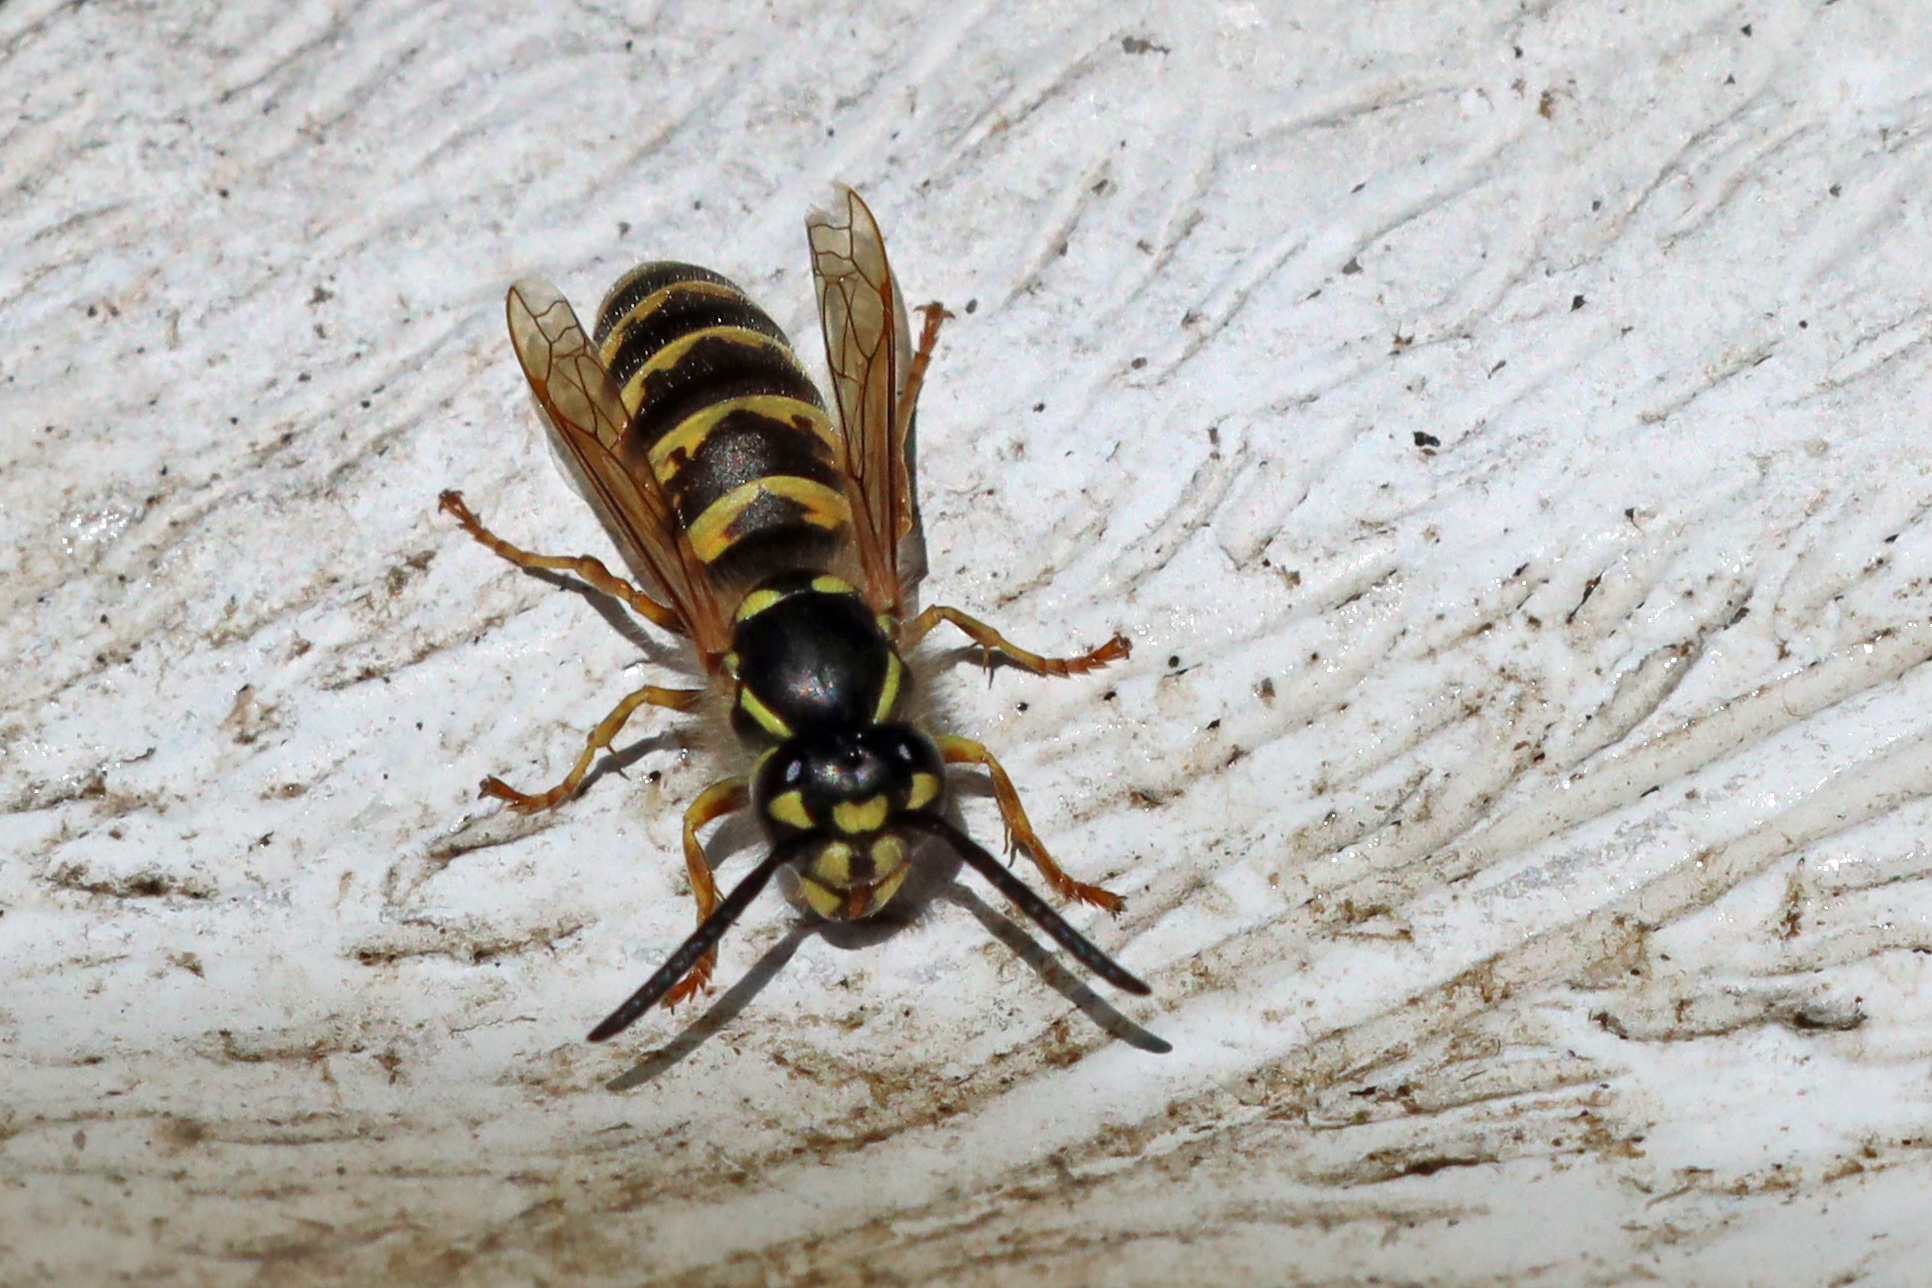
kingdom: Animalia
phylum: Arthropoda
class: Insecta
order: Hymenoptera
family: Vespidae
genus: Vespula
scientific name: Vespula vulgaris
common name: Common wasp
